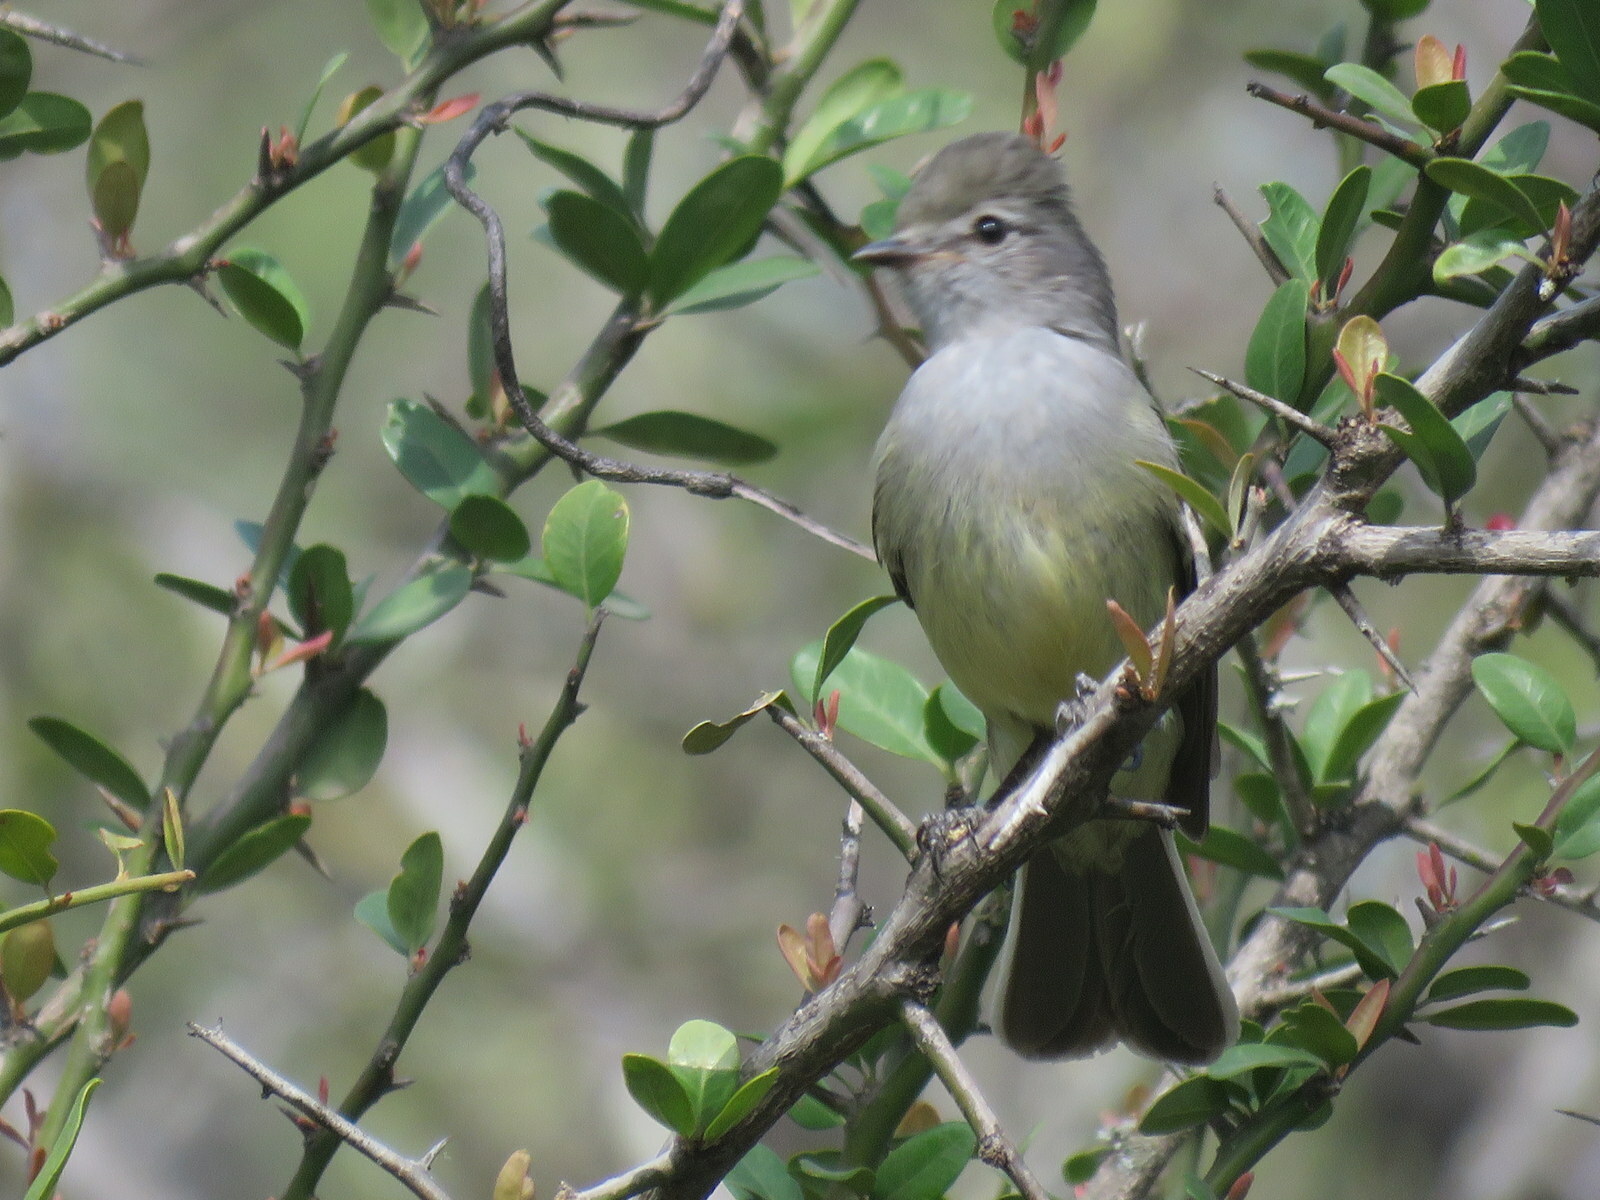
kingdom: Animalia
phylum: Chordata
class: Aves
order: Passeriformes
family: Tyrannidae
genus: Sublegatus
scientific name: Sublegatus modestus
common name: Southern scrub flycatcher
